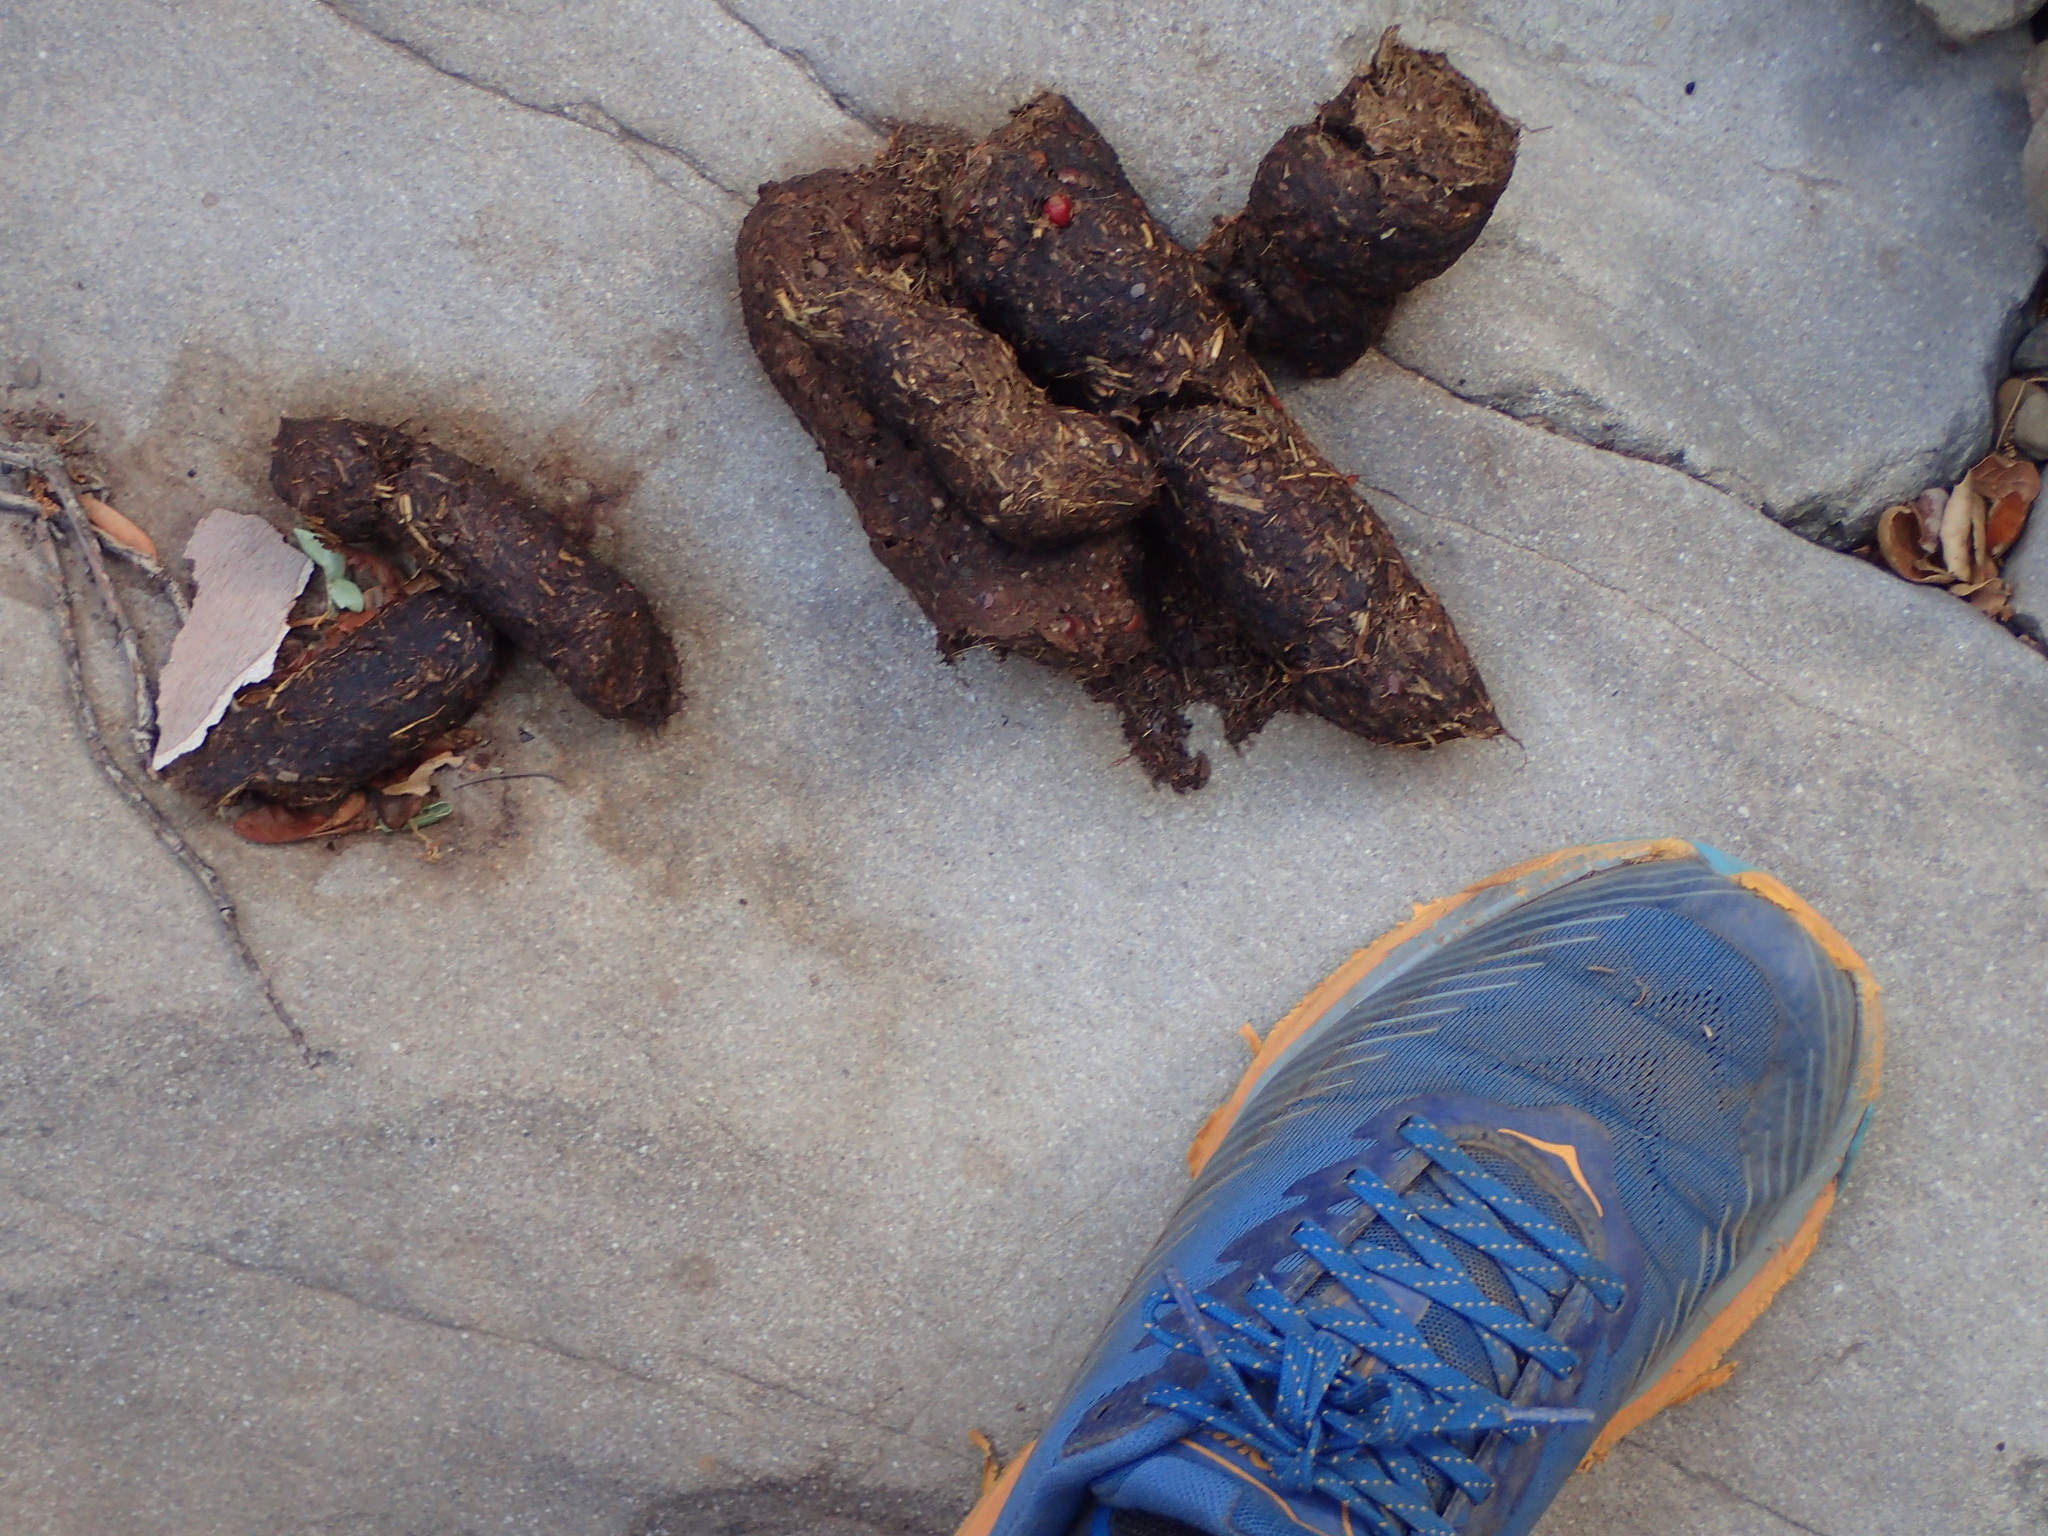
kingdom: Animalia
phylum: Chordata
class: Mammalia
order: Carnivora
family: Ursidae
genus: Ursus
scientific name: Ursus americanus
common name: American black bear
